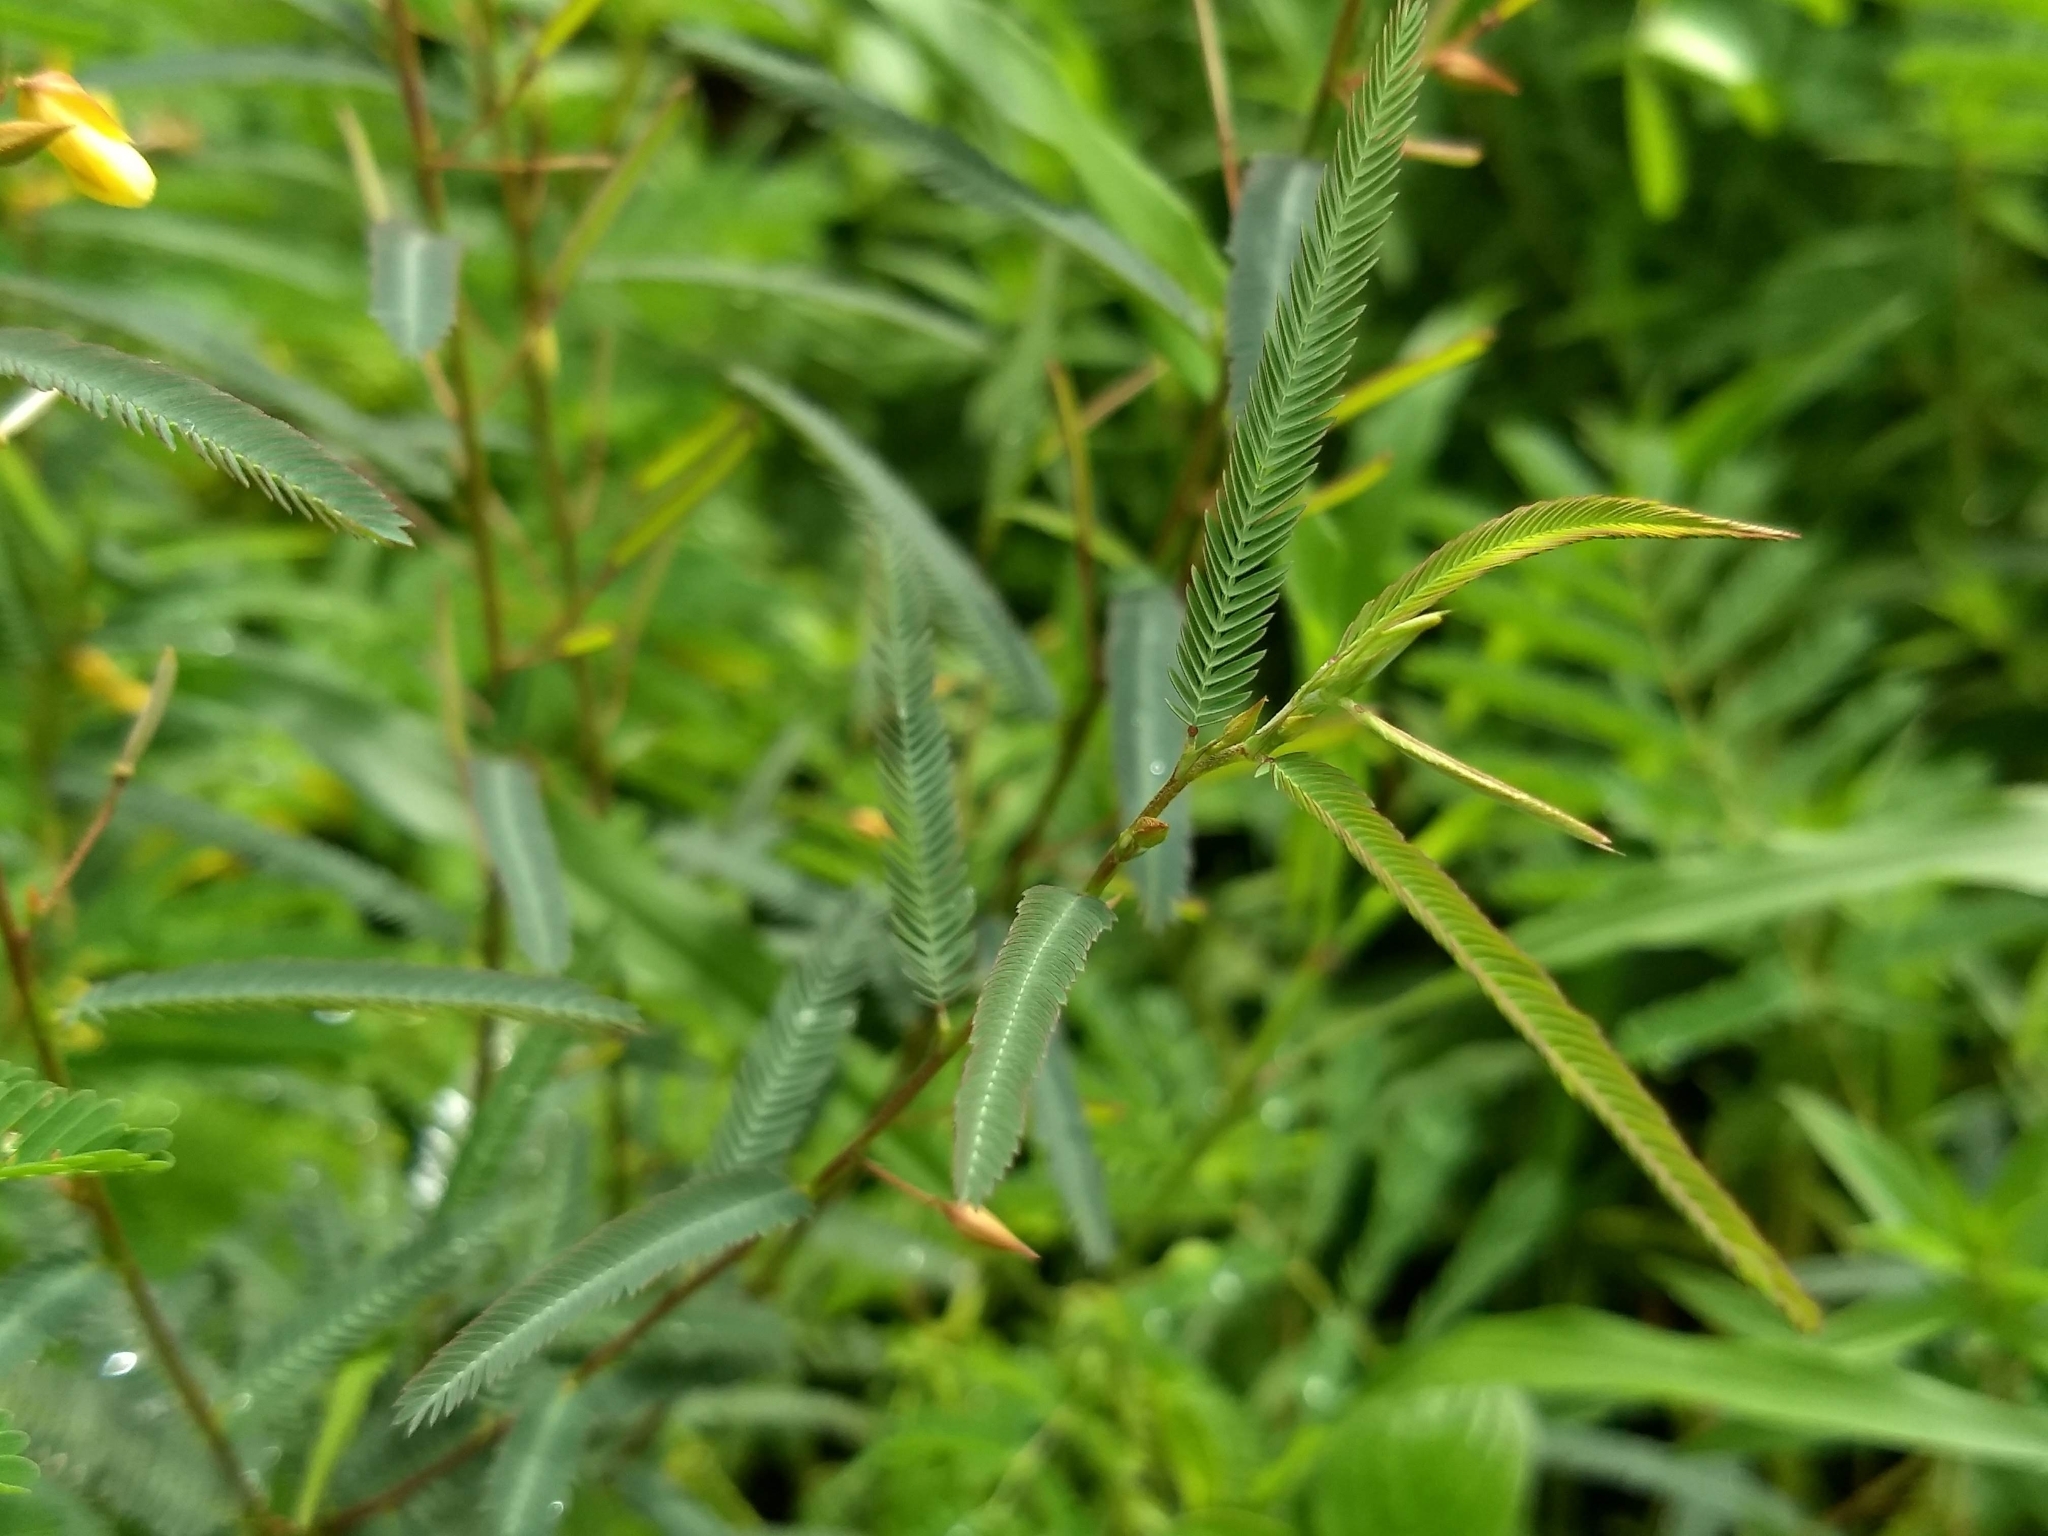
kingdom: Plantae
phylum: Tracheophyta
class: Magnoliopsida
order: Fabales
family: Fabaceae
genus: Chamaecrista
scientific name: Chamaecrista mimosoides
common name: Fish-bone cassia
